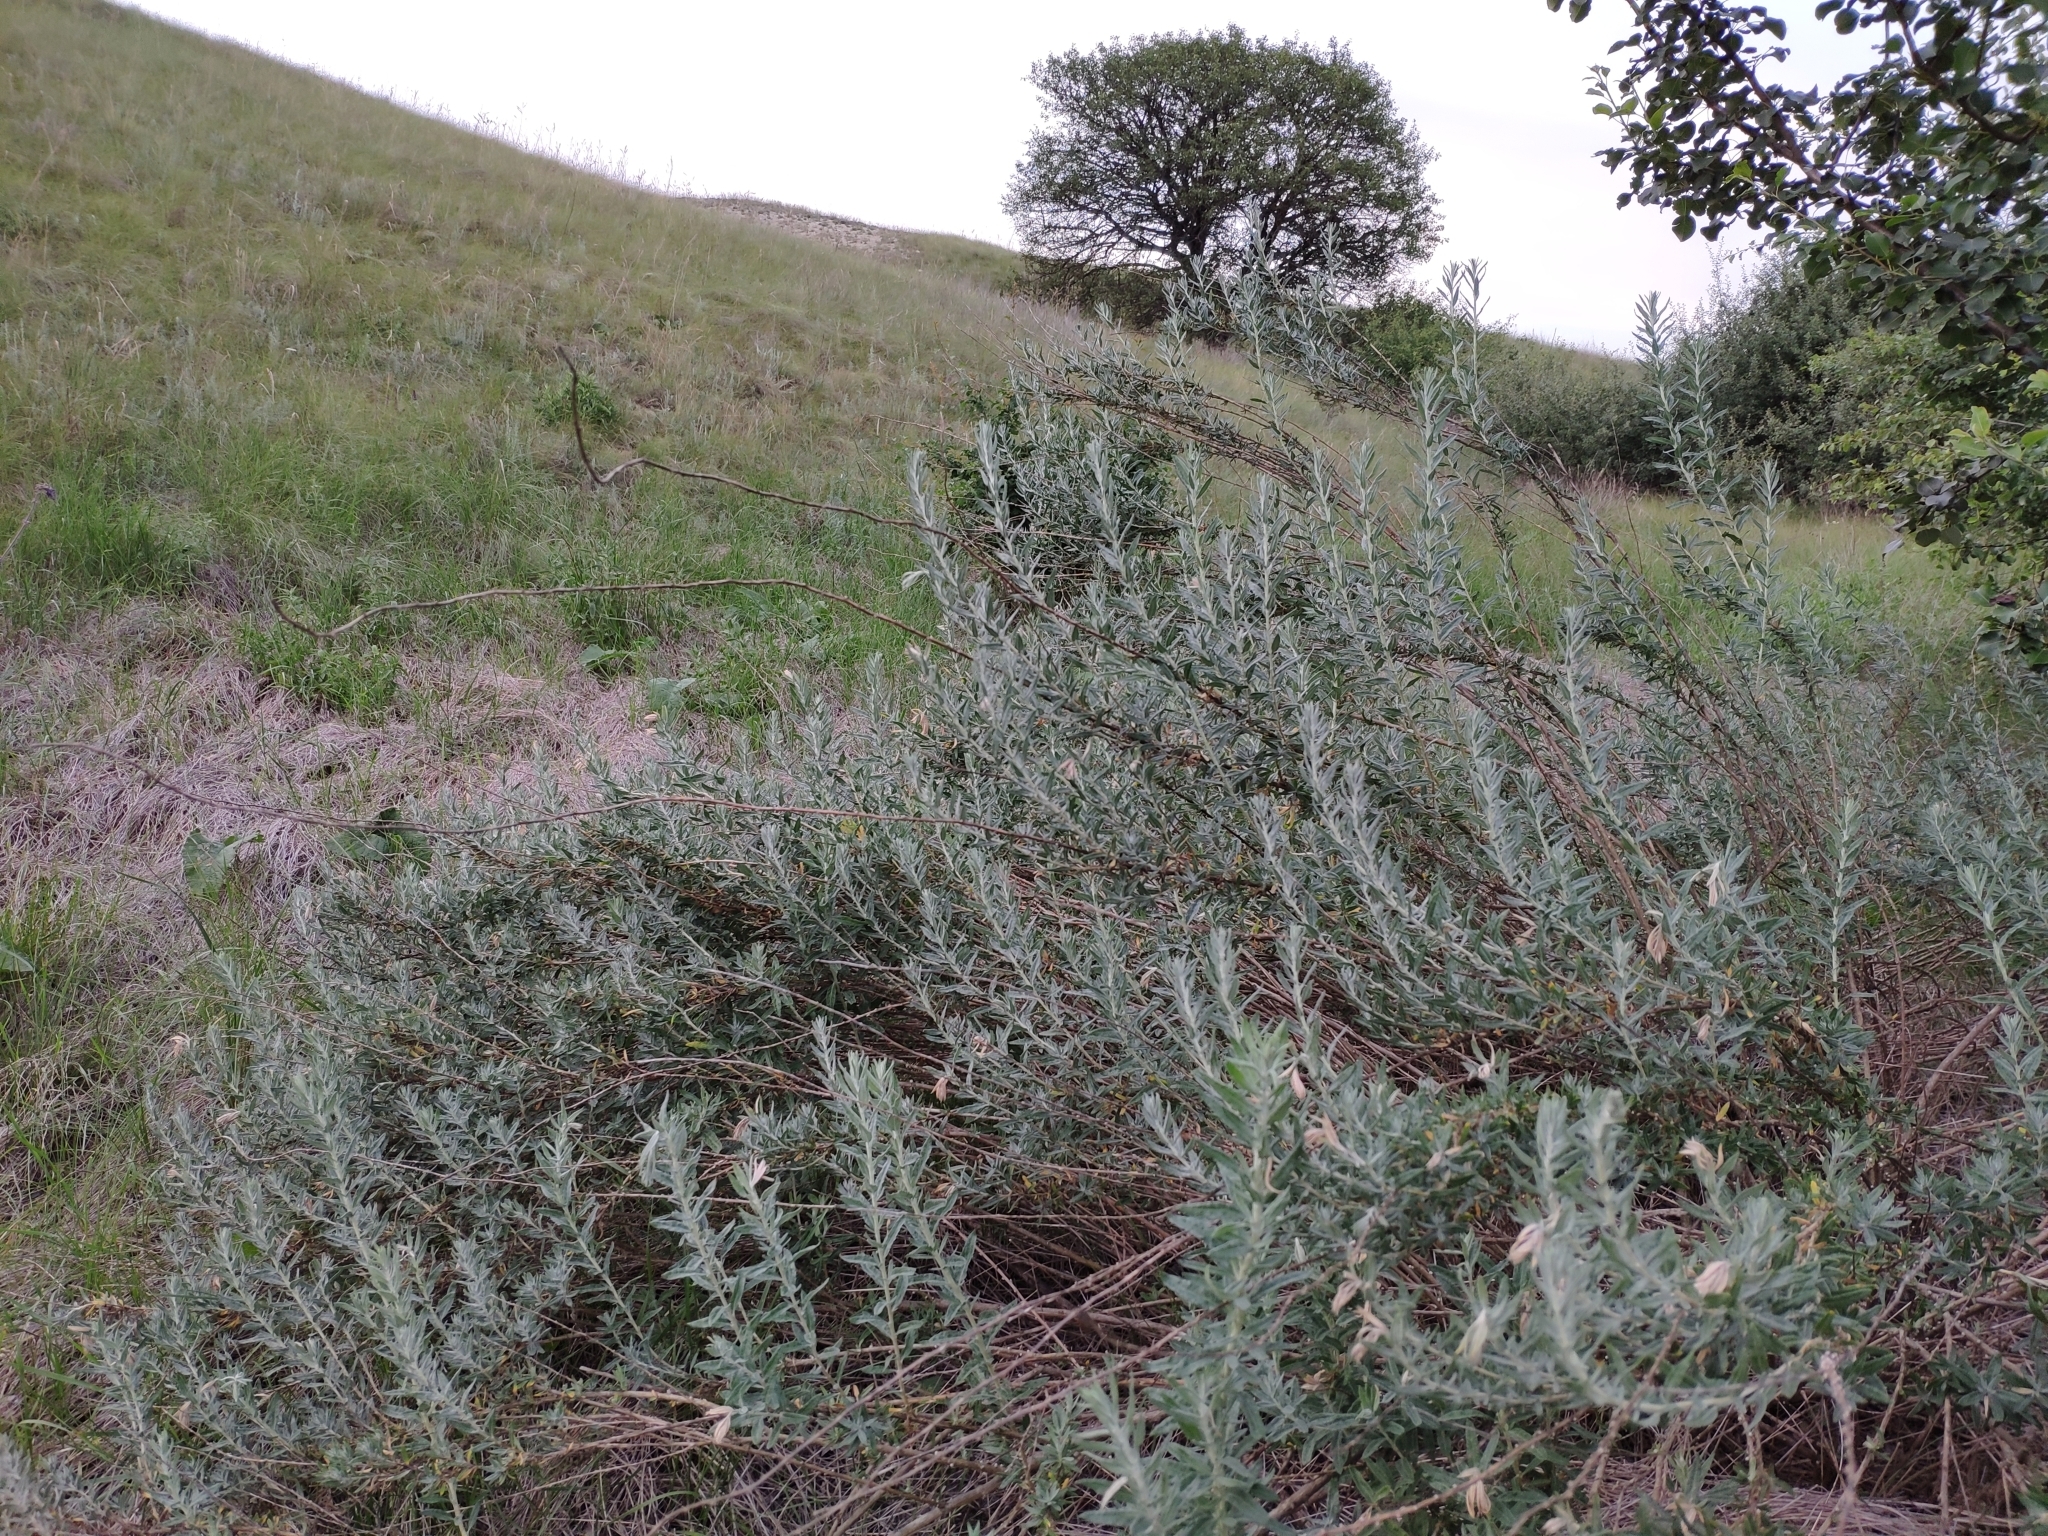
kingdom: Plantae
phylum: Tracheophyta
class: Magnoliopsida
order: Caryophyllales
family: Amaranthaceae
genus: Krascheninnikovia
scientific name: Krascheninnikovia ceratoides
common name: Pamirian winterfat
